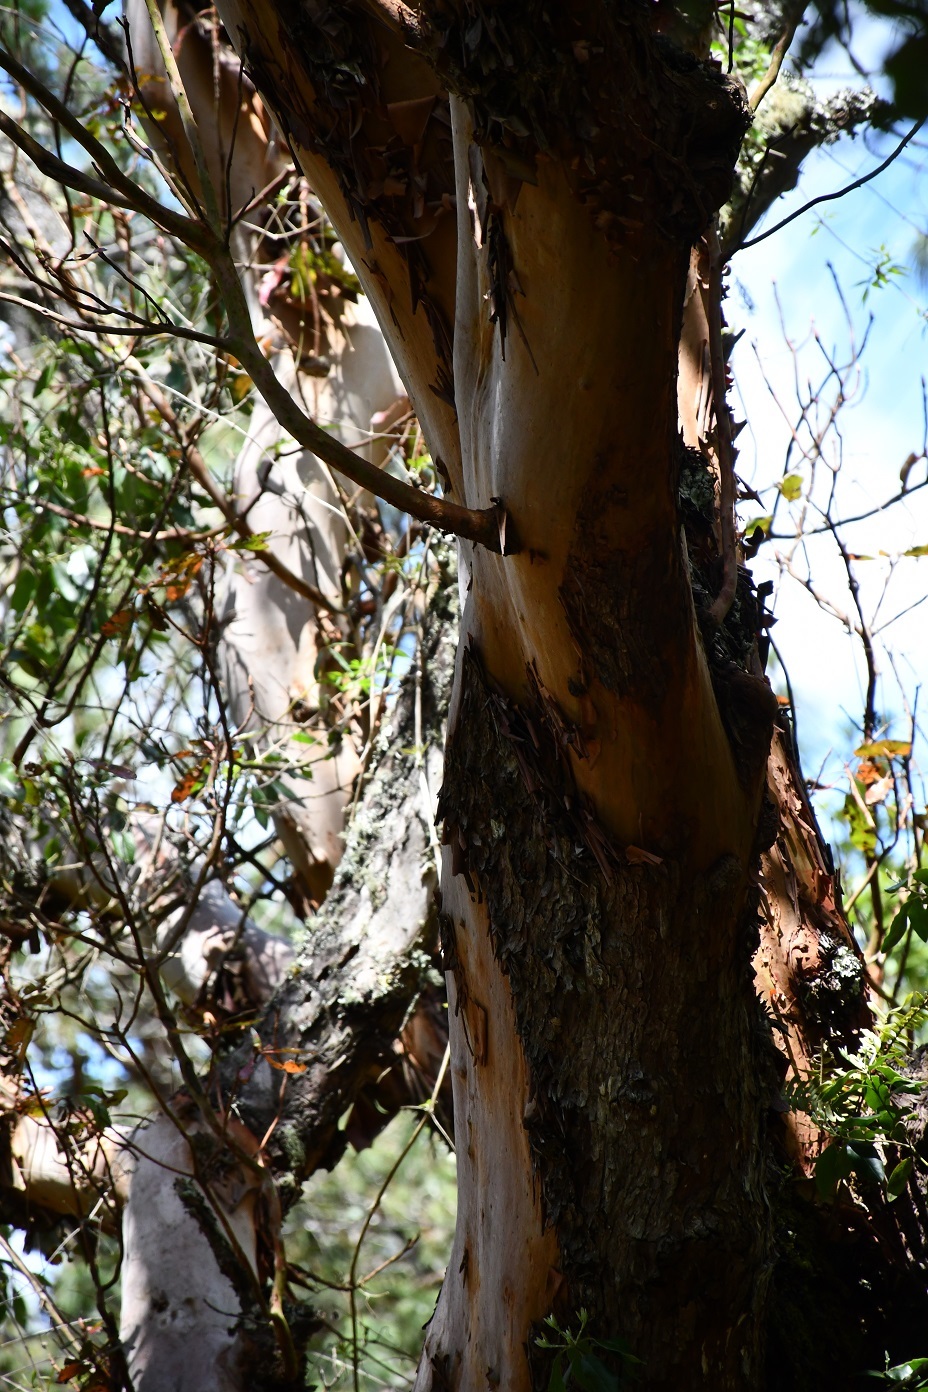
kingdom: Plantae
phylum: Tracheophyta
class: Magnoliopsida
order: Ericales
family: Ericaceae
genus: Arbutus
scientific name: Arbutus xalapensis
